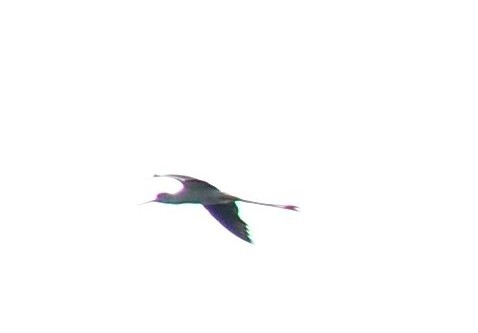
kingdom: Animalia
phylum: Chordata
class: Aves
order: Charadriiformes
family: Recurvirostridae
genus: Himantopus
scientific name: Himantopus himantopus
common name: Black-winged stilt
